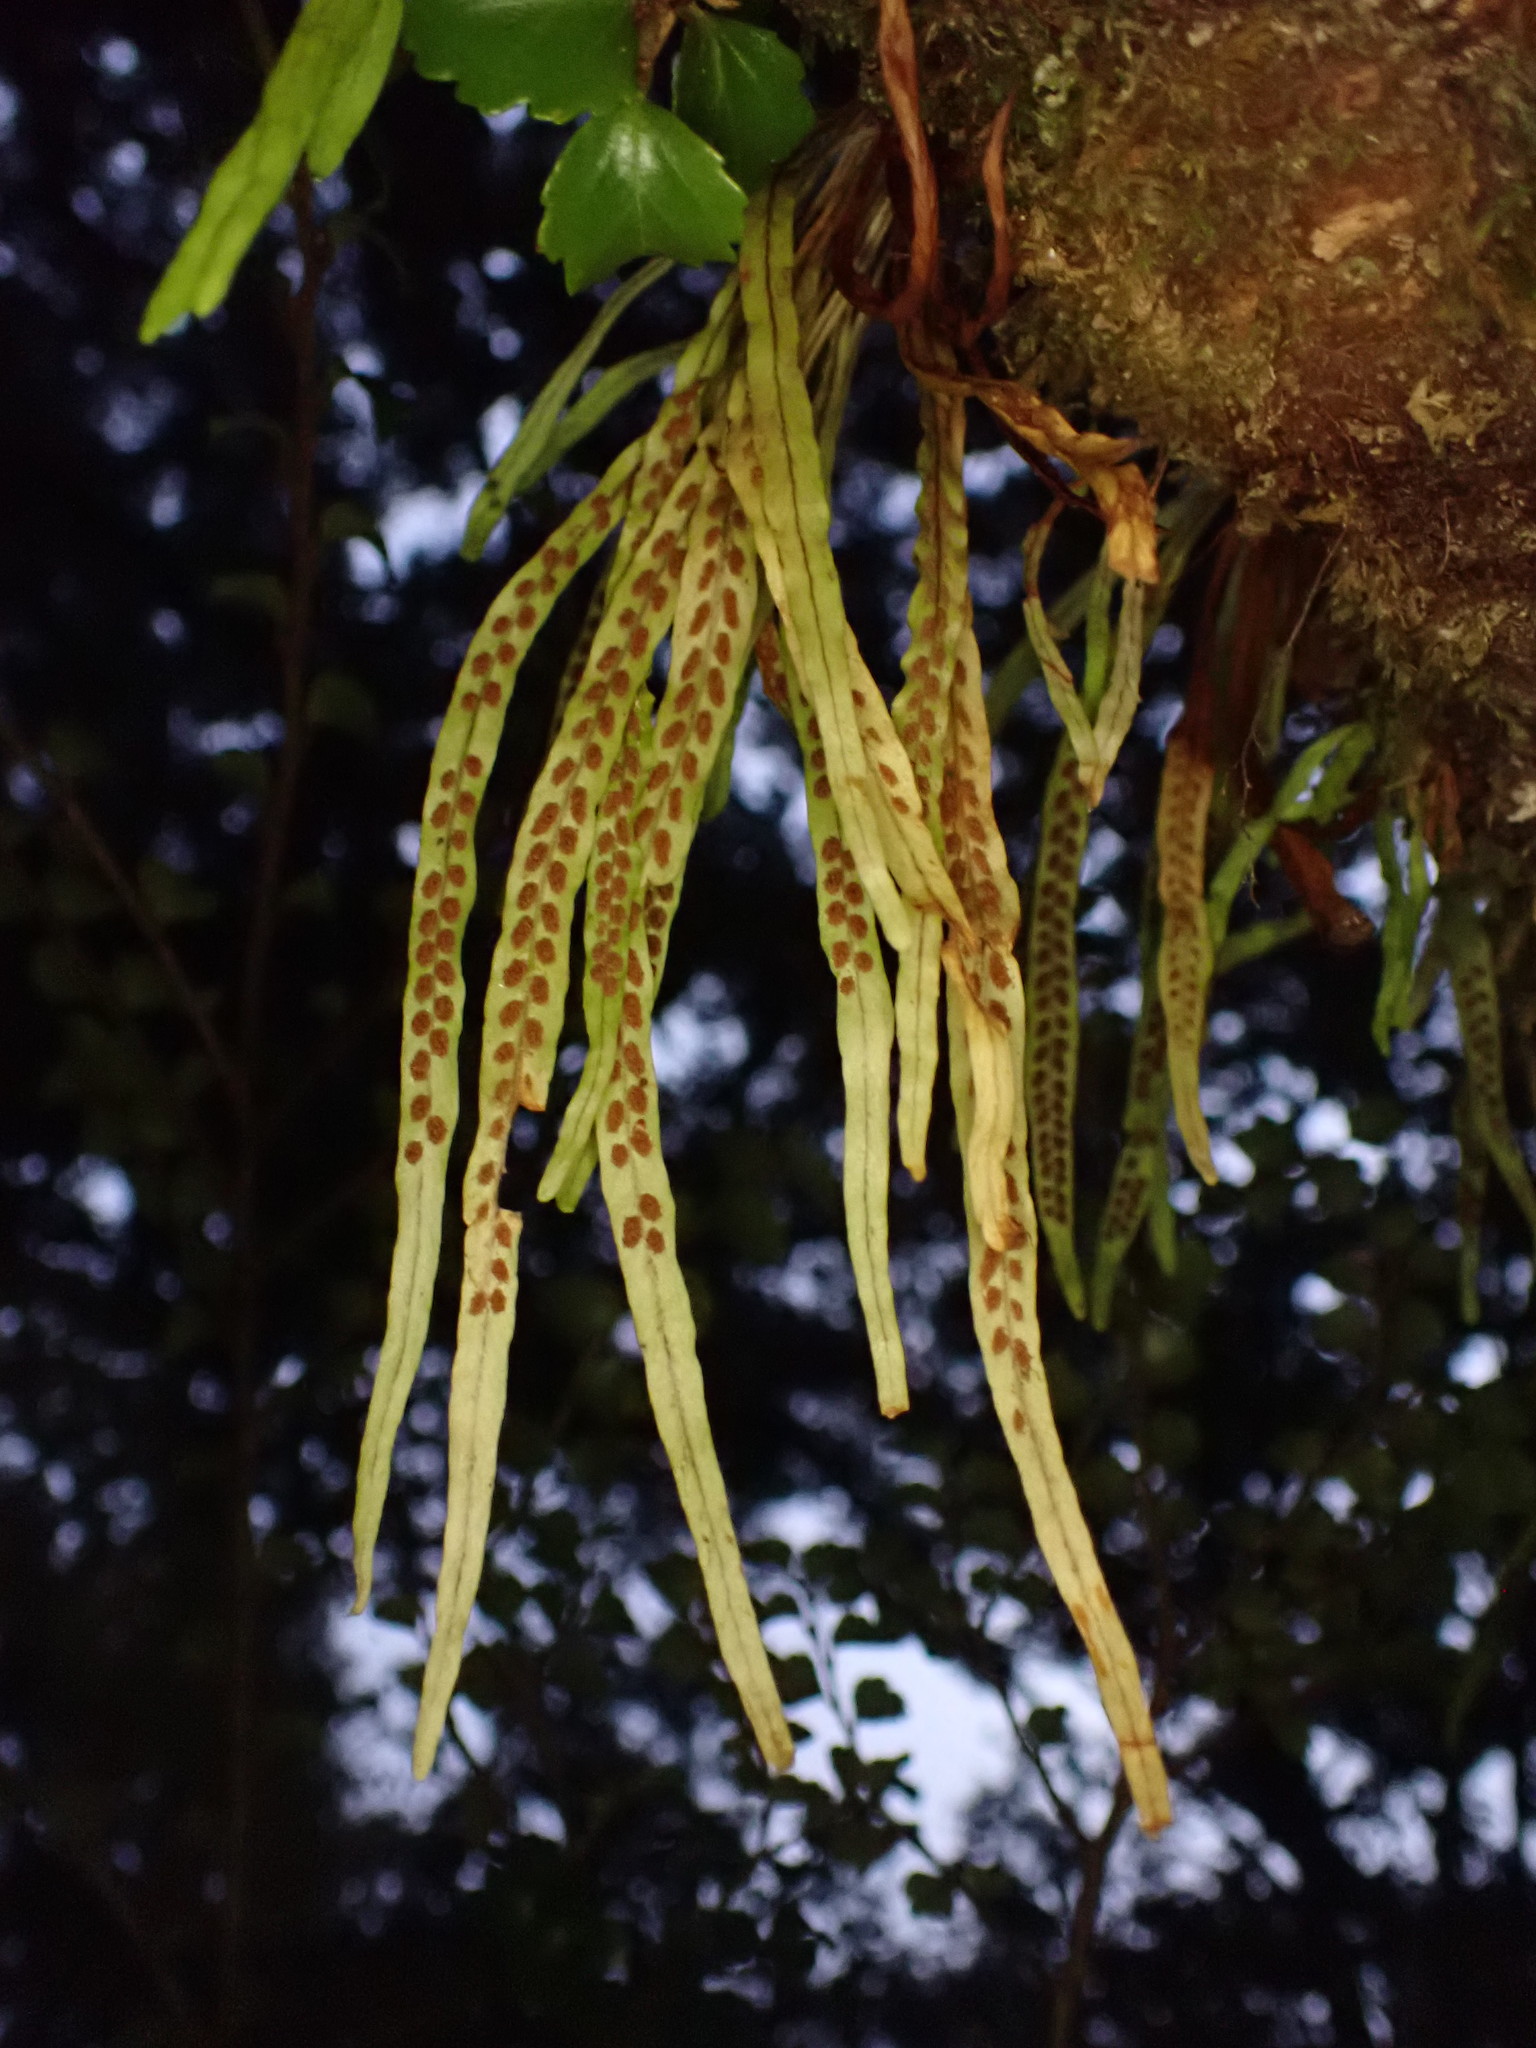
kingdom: Plantae
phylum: Tracheophyta
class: Polypodiopsida
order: Polypodiales
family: Polypodiaceae
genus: Notogrammitis
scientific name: Notogrammitis angustifolia
